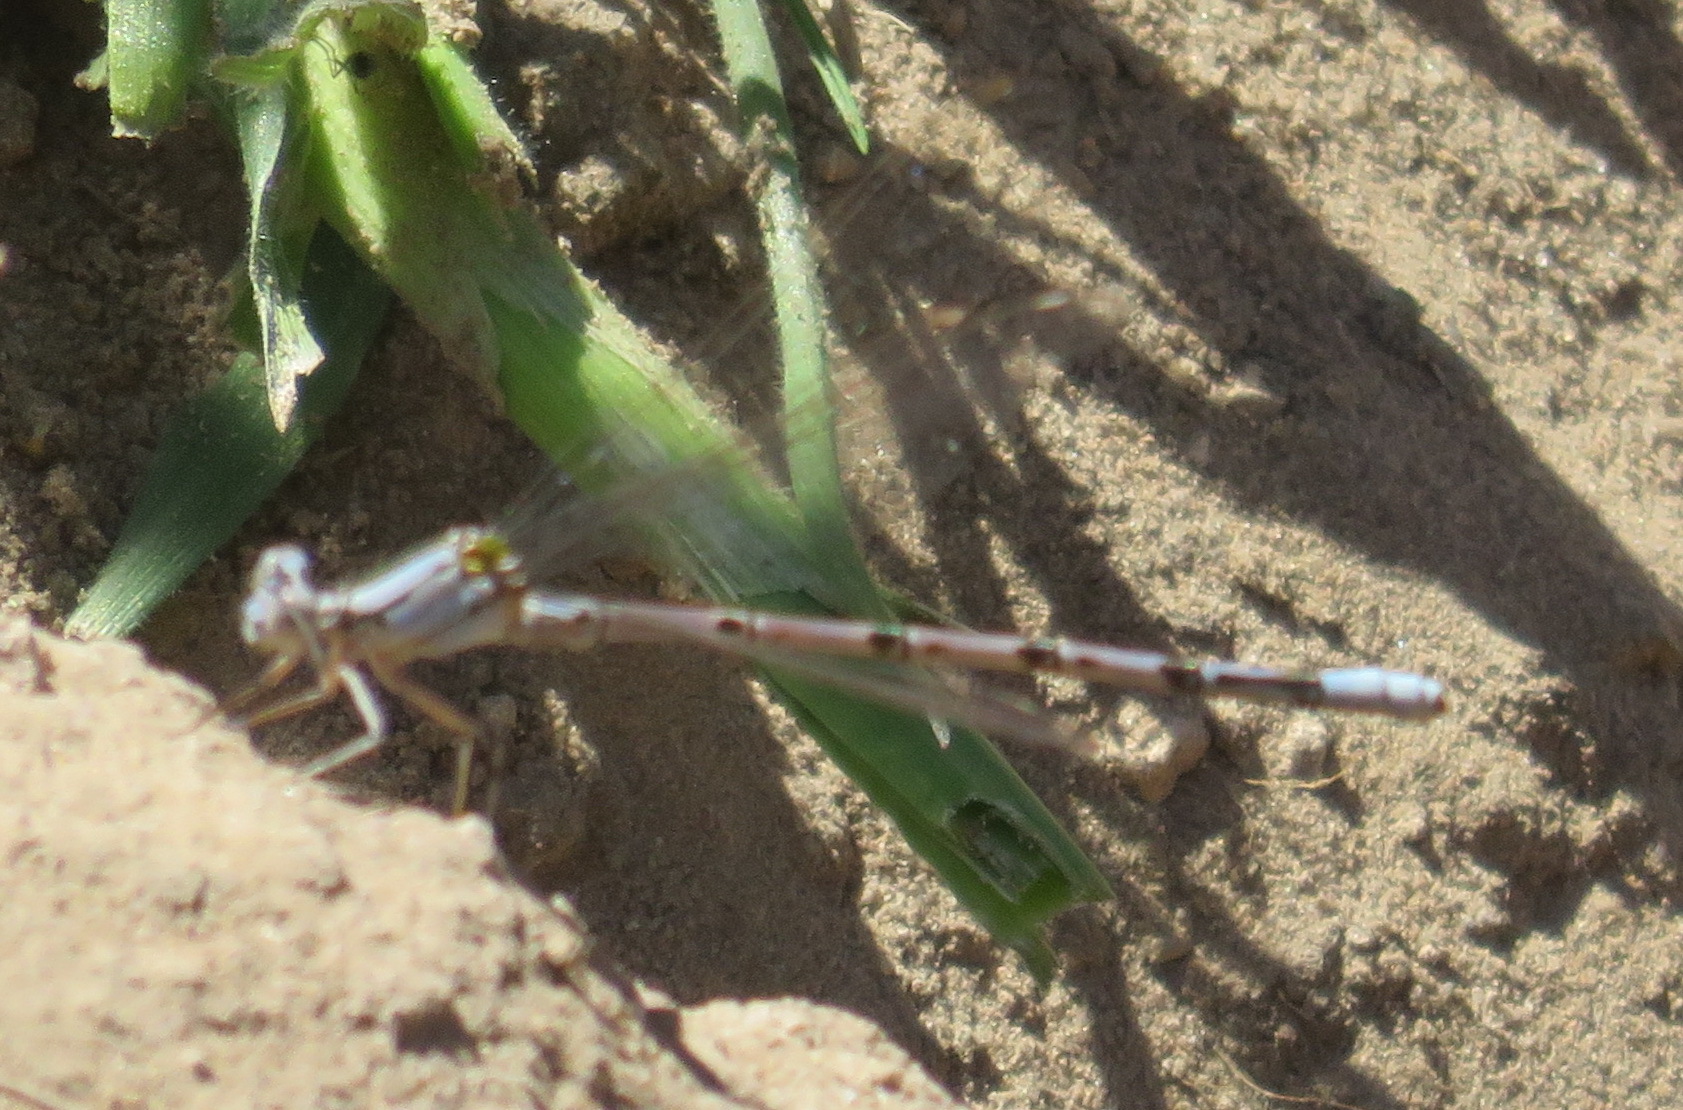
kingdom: Animalia
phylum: Arthropoda
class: Insecta
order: Odonata
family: Coenagrionidae
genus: Argia
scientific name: Argia funebris
